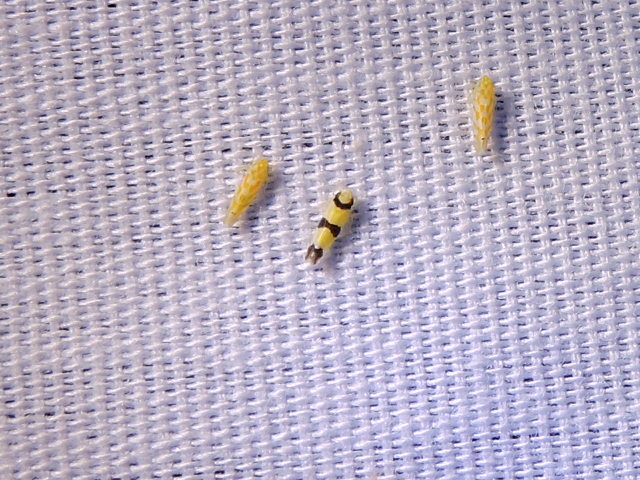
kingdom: Animalia
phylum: Arthropoda
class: Insecta
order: Hemiptera
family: Cicadellidae
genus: Erythroneura
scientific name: Erythroneura calycula
